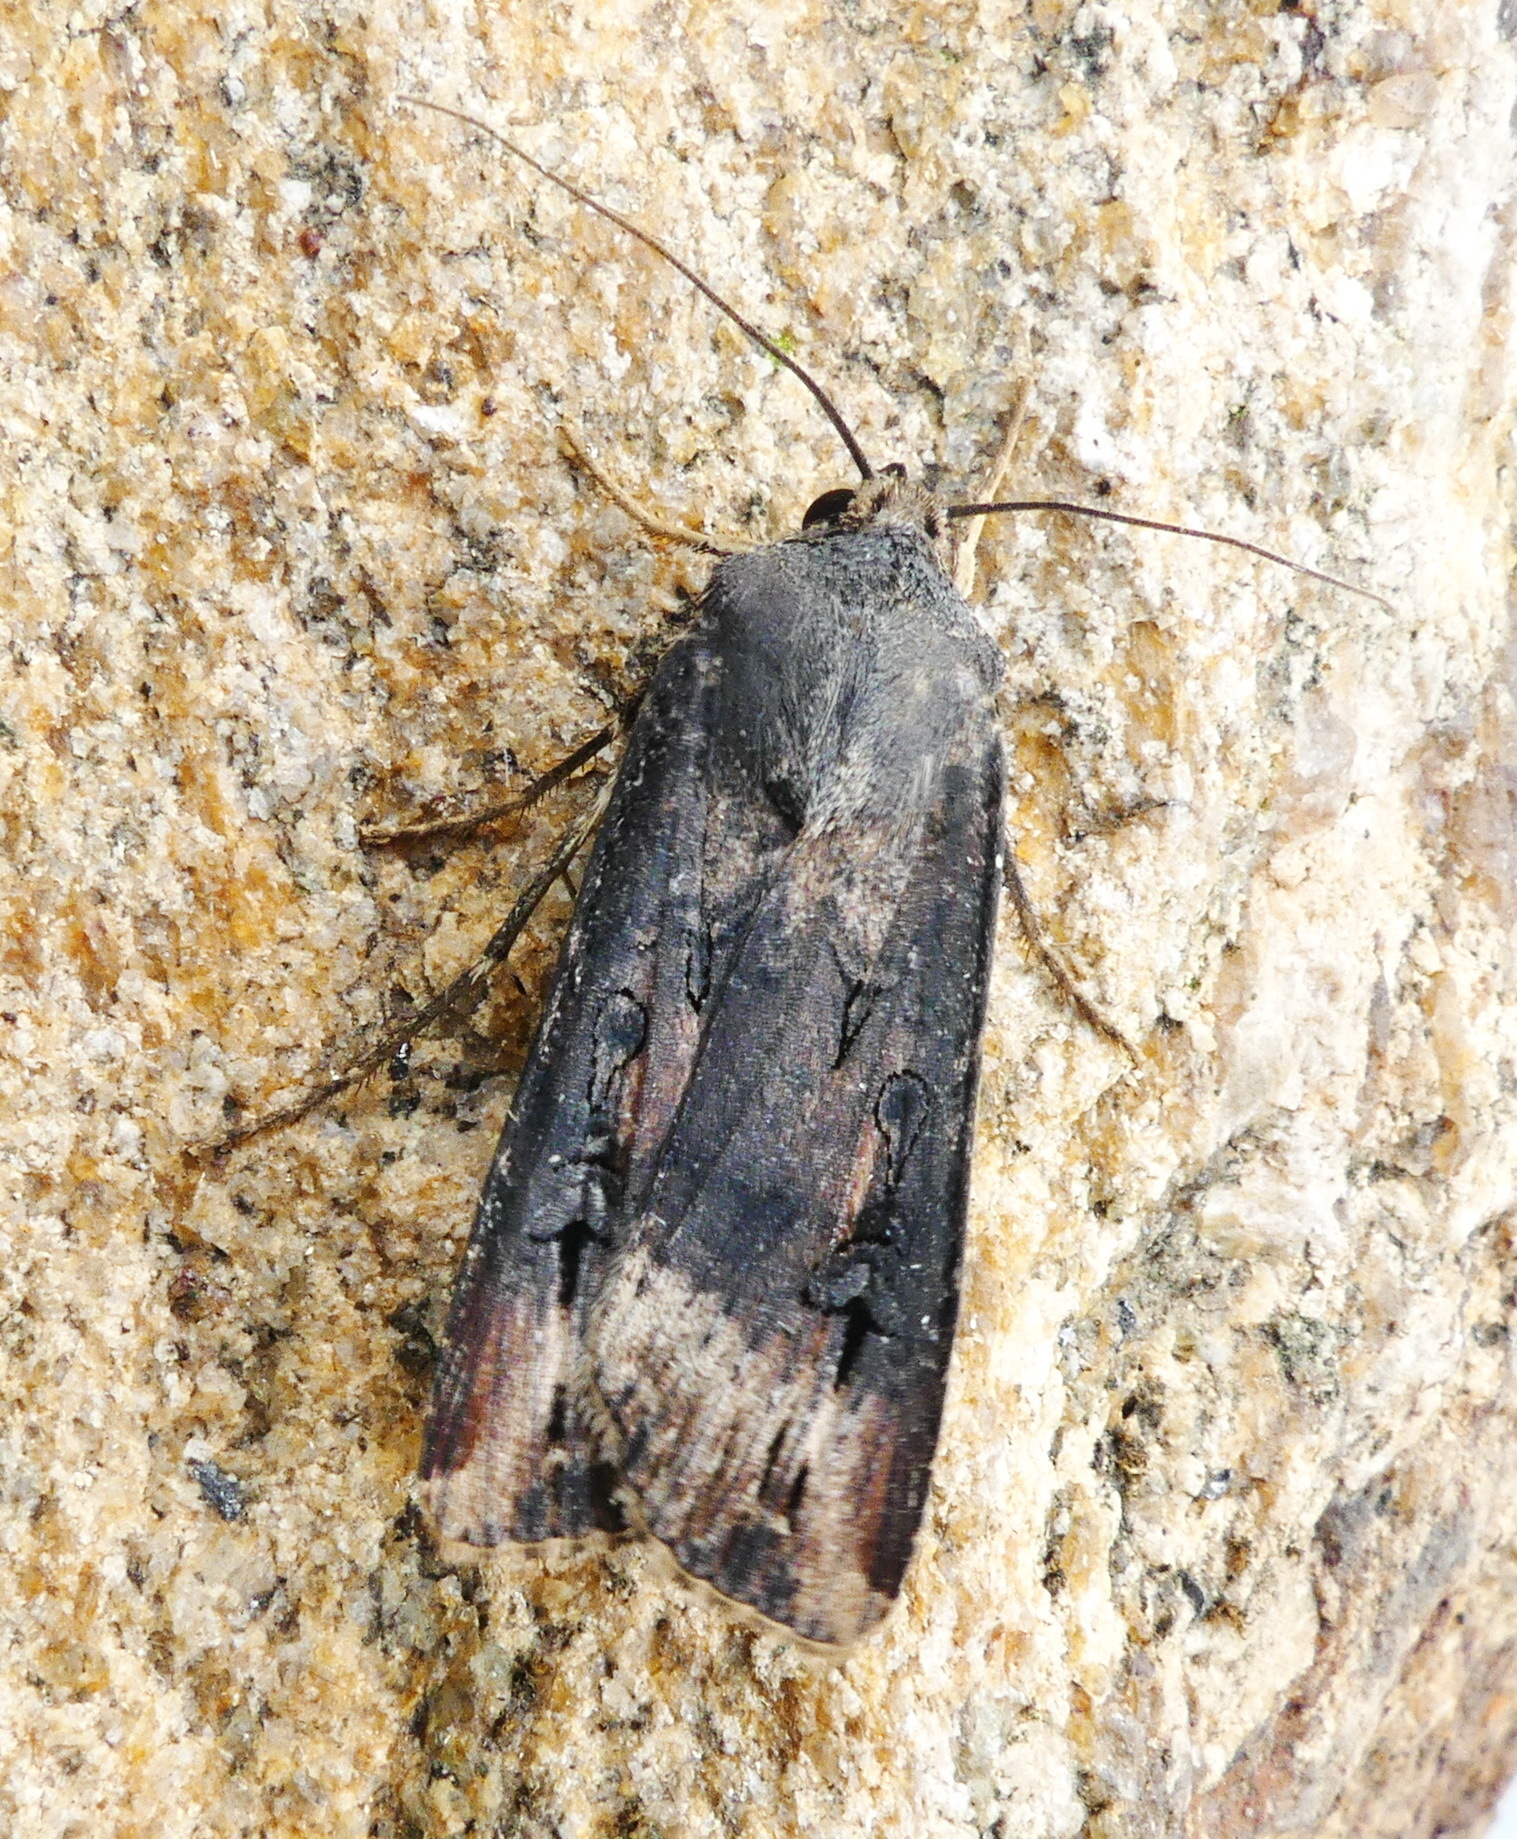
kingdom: Animalia
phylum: Arthropoda
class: Insecta
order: Lepidoptera
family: Noctuidae
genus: Agrotis
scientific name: Agrotis ipsilon
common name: Dark sword-grass
